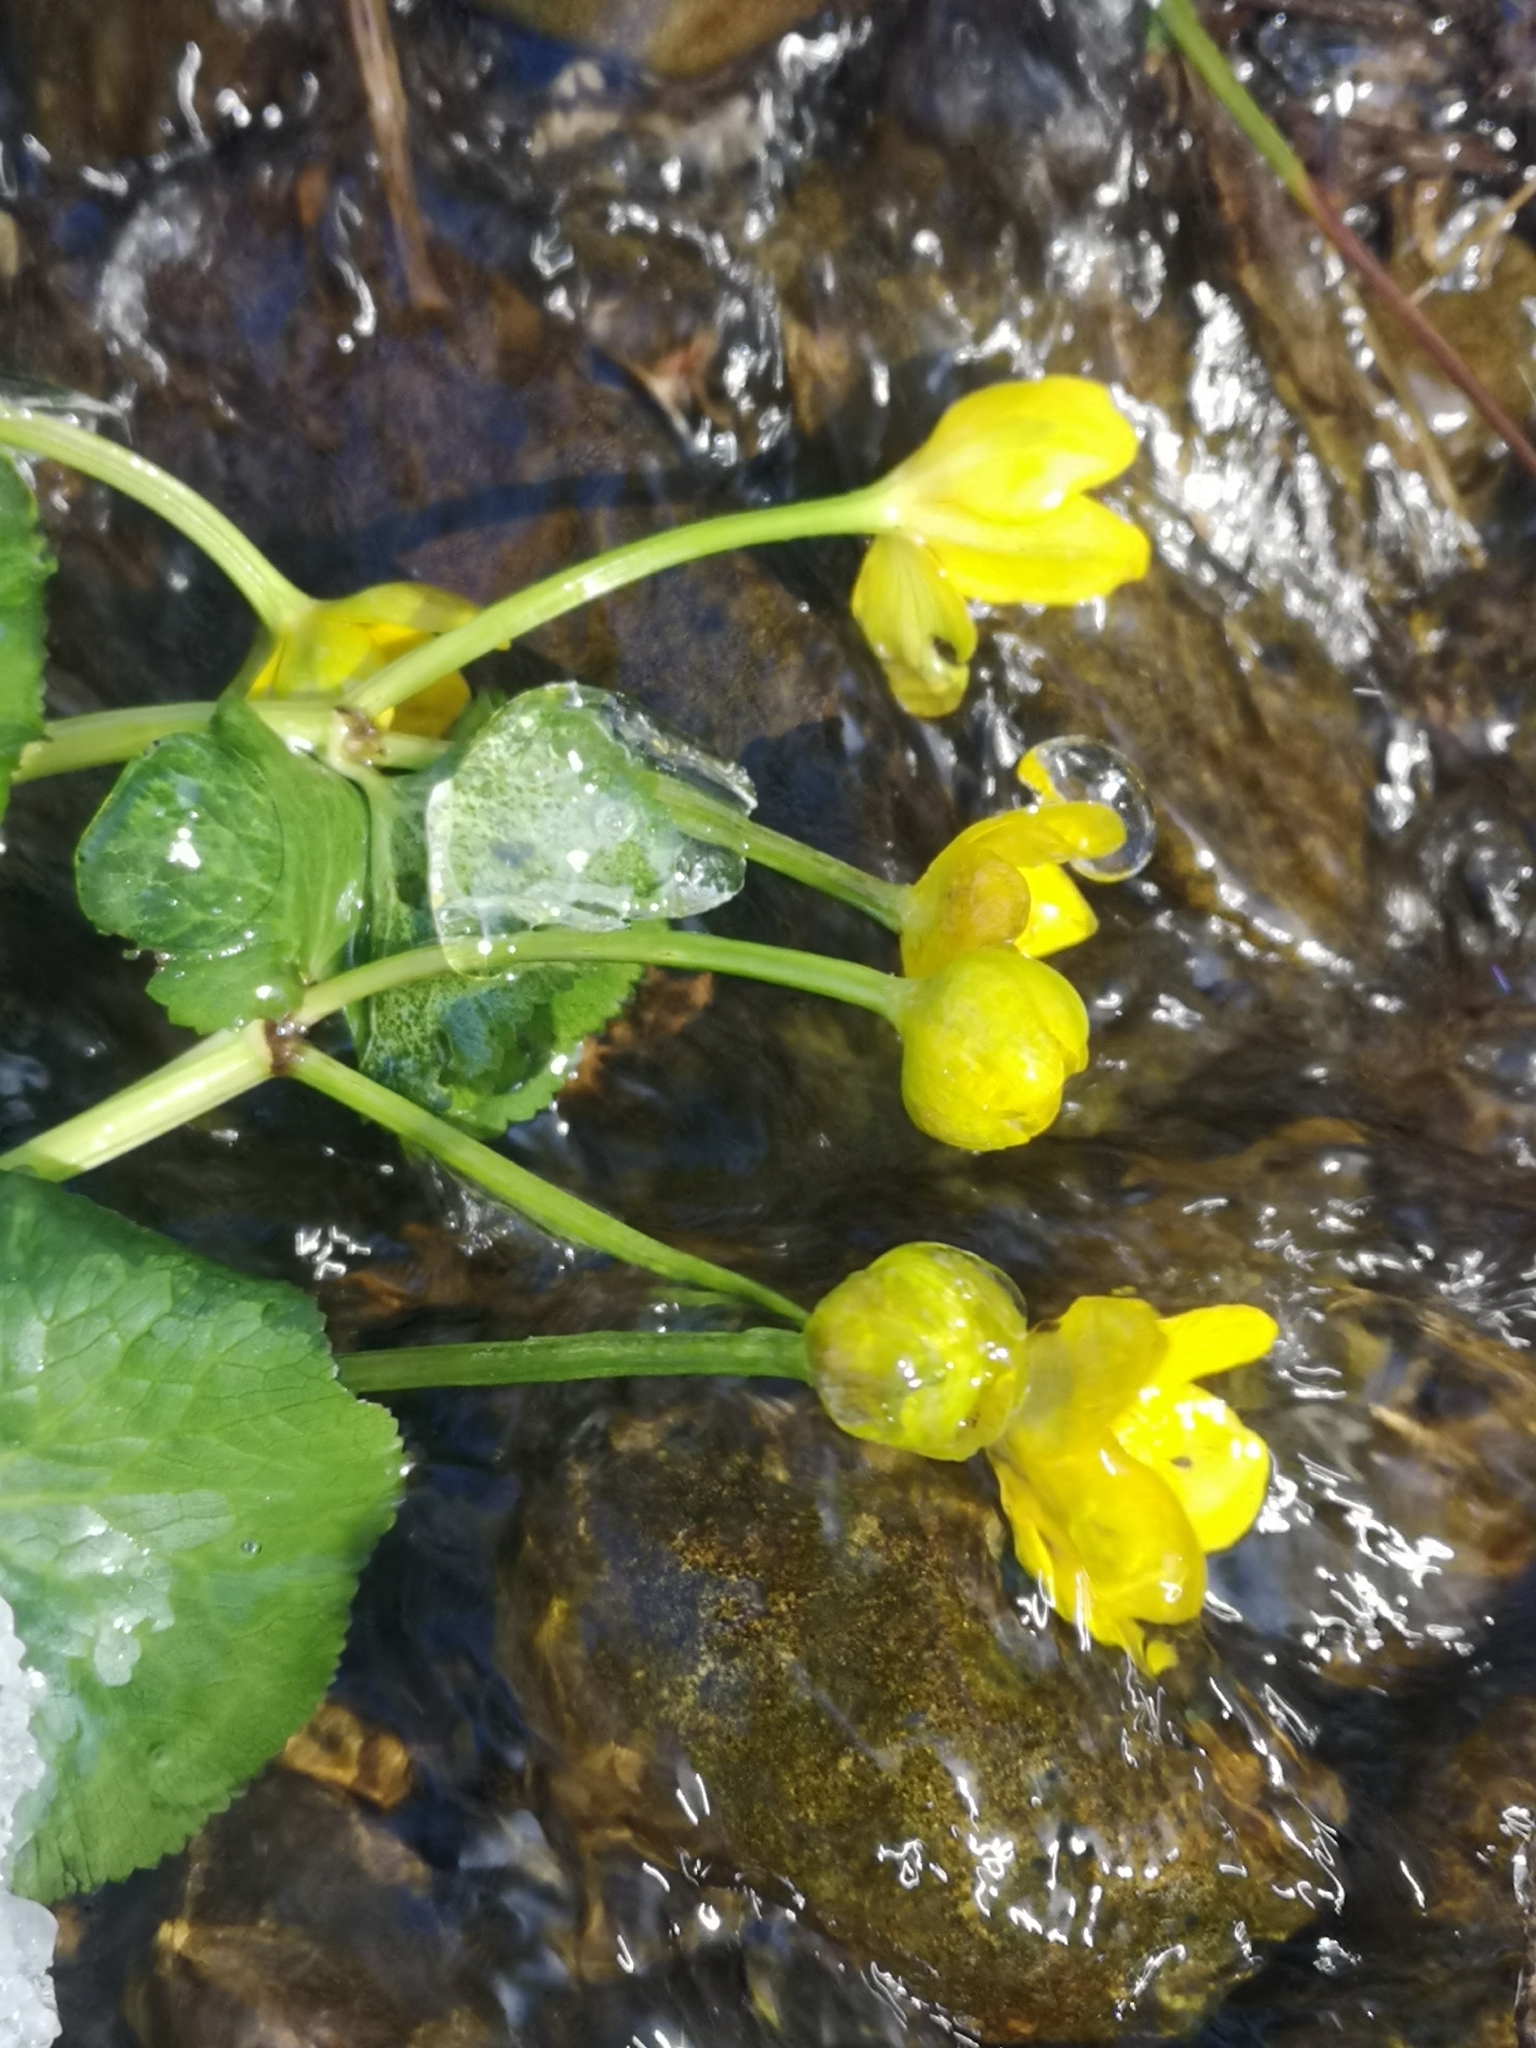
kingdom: Plantae
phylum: Tracheophyta
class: Magnoliopsida
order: Ranunculales
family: Ranunculaceae
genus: Caltha
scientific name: Caltha palustris
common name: Marsh marigold
